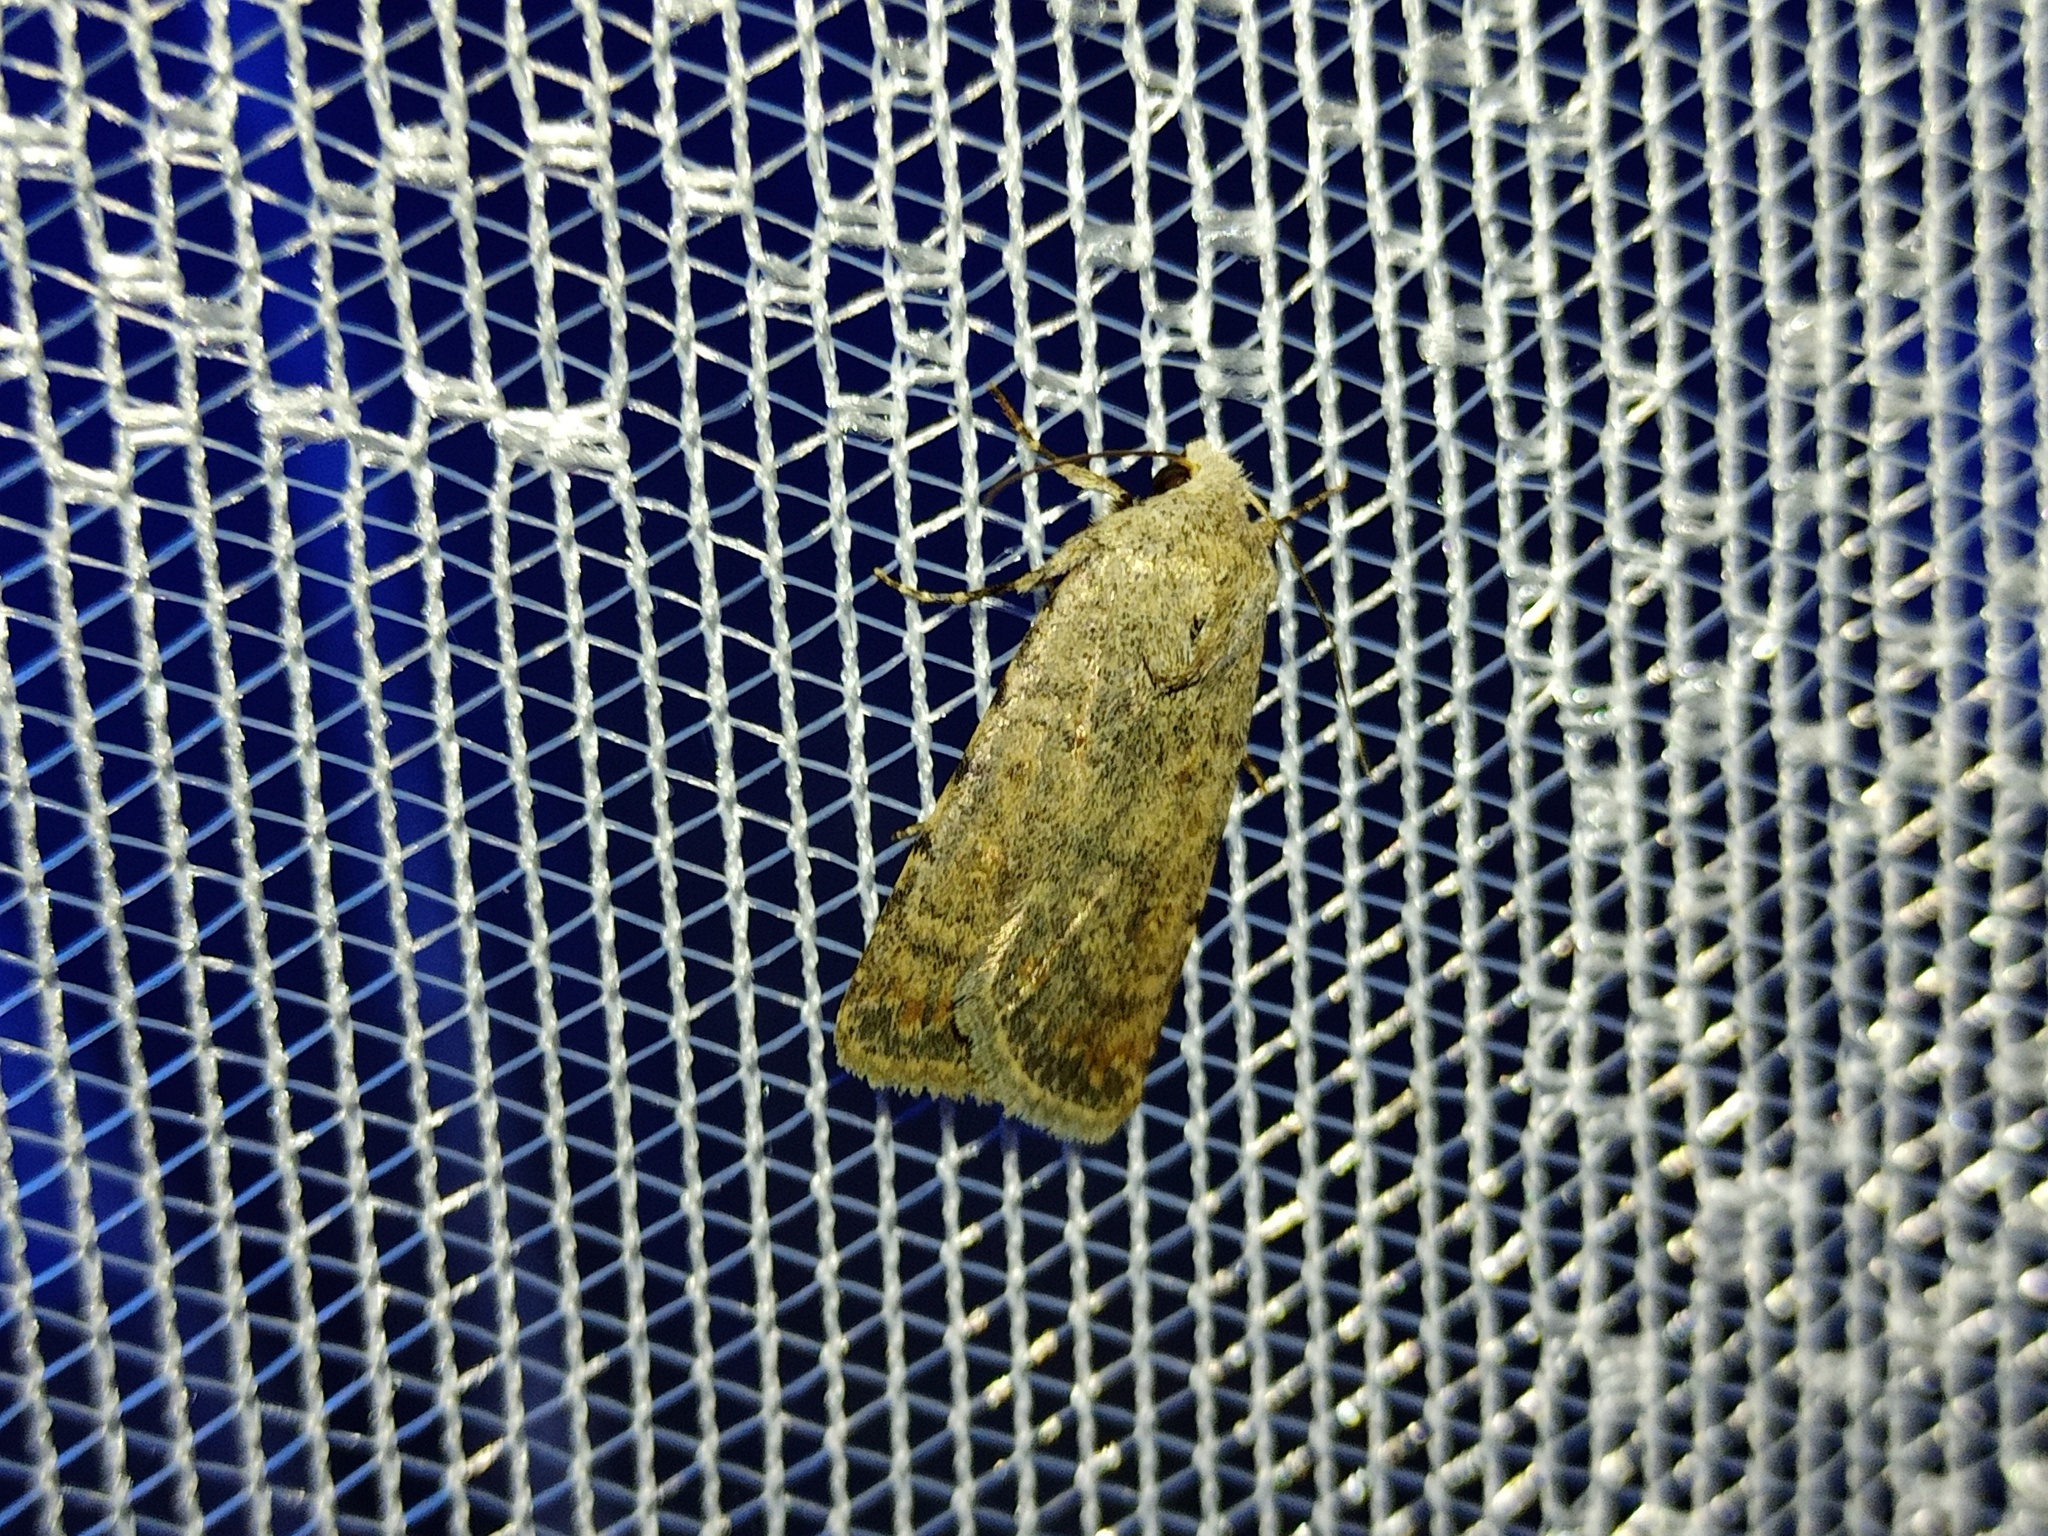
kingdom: Animalia
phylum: Arthropoda
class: Insecta
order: Lepidoptera
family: Noctuidae
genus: Caradrina
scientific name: Caradrina clavipalpis
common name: Pale mottled willow
